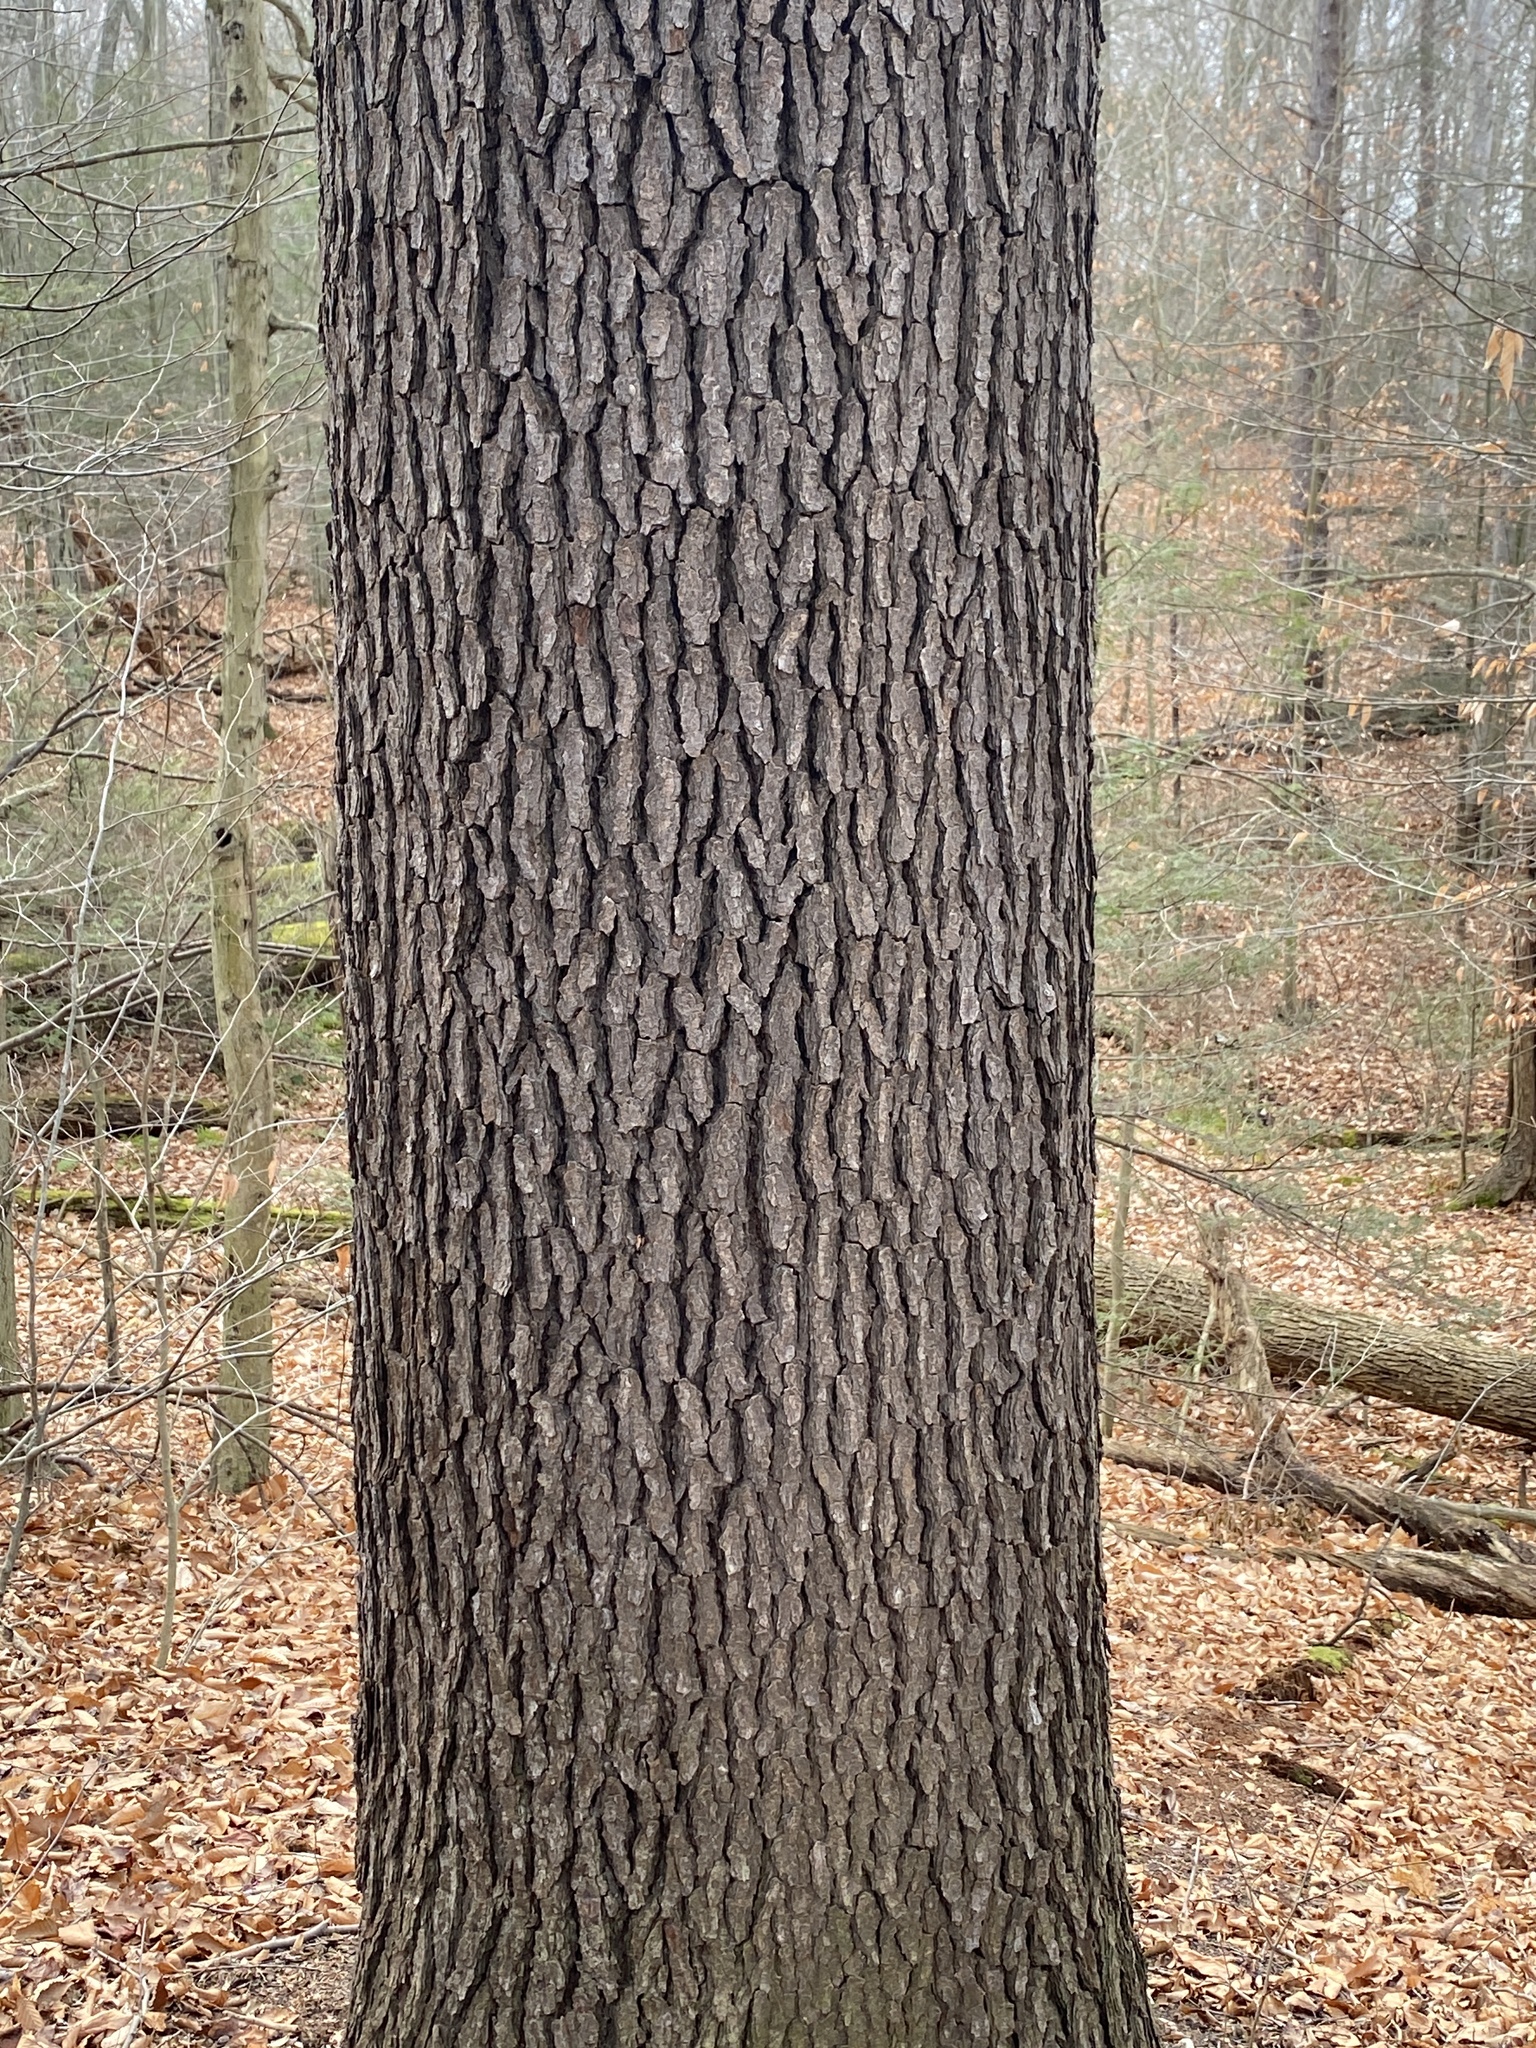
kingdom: Plantae
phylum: Tracheophyta
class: Magnoliopsida
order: Rosales
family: Rosaceae
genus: Prunus
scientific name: Prunus serotina
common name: Black cherry
